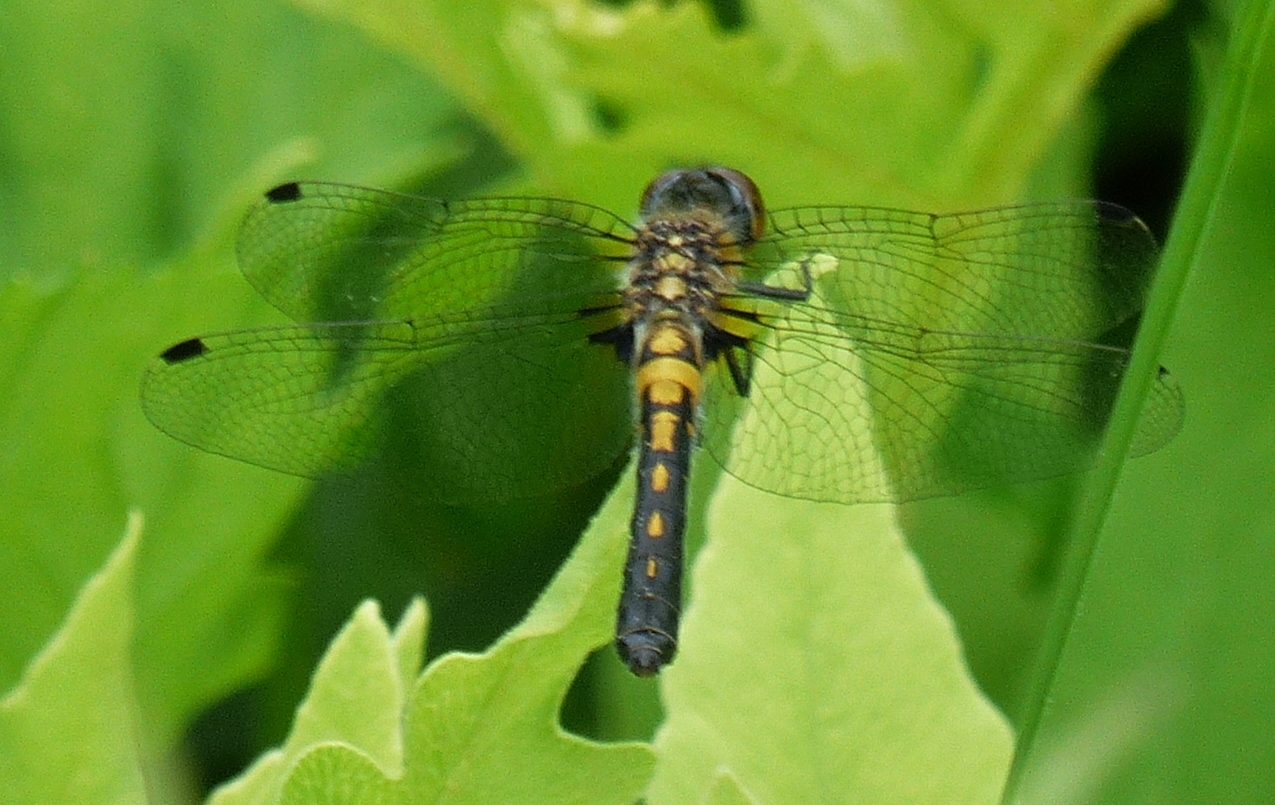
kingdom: Animalia
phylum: Arthropoda
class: Insecta
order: Odonata
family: Libellulidae
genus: Leucorrhinia
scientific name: Leucorrhinia frigida
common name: Frosted whiteface
